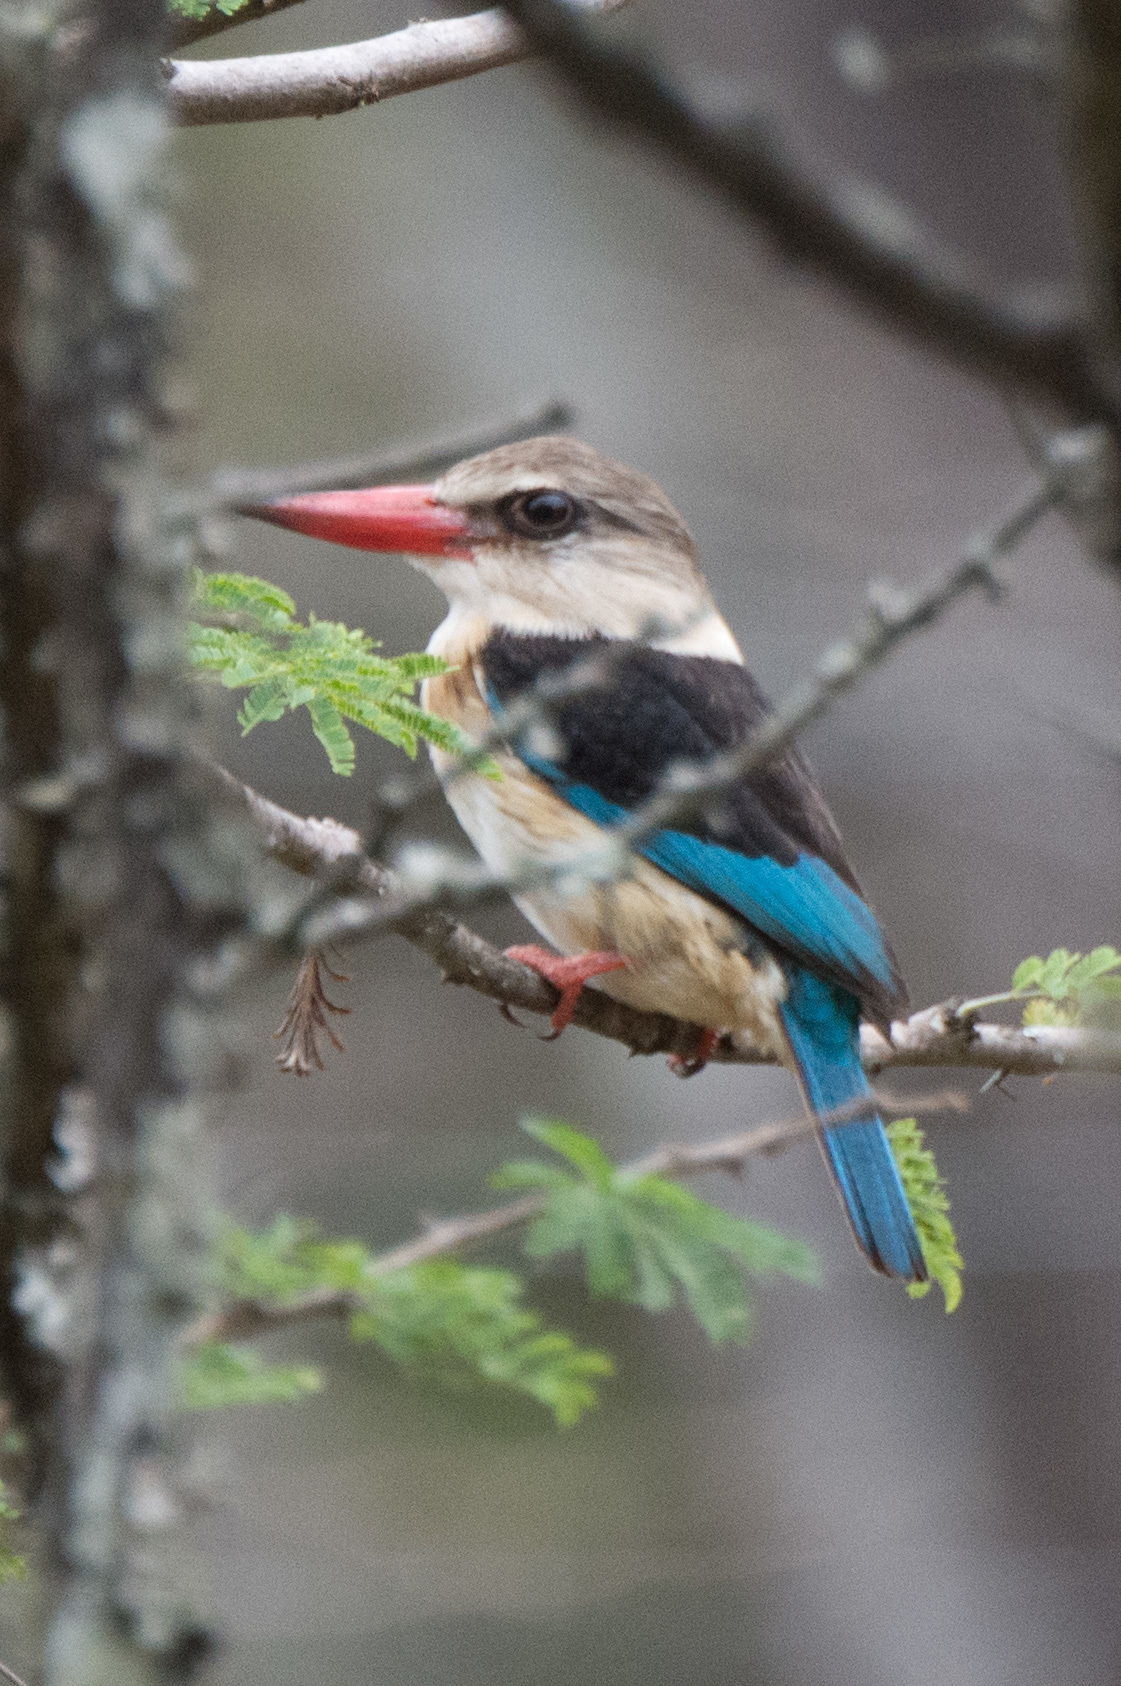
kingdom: Animalia
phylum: Chordata
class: Aves
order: Coraciiformes
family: Alcedinidae
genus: Halcyon
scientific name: Halcyon albiventris
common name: Brown-hooded kingfisher
